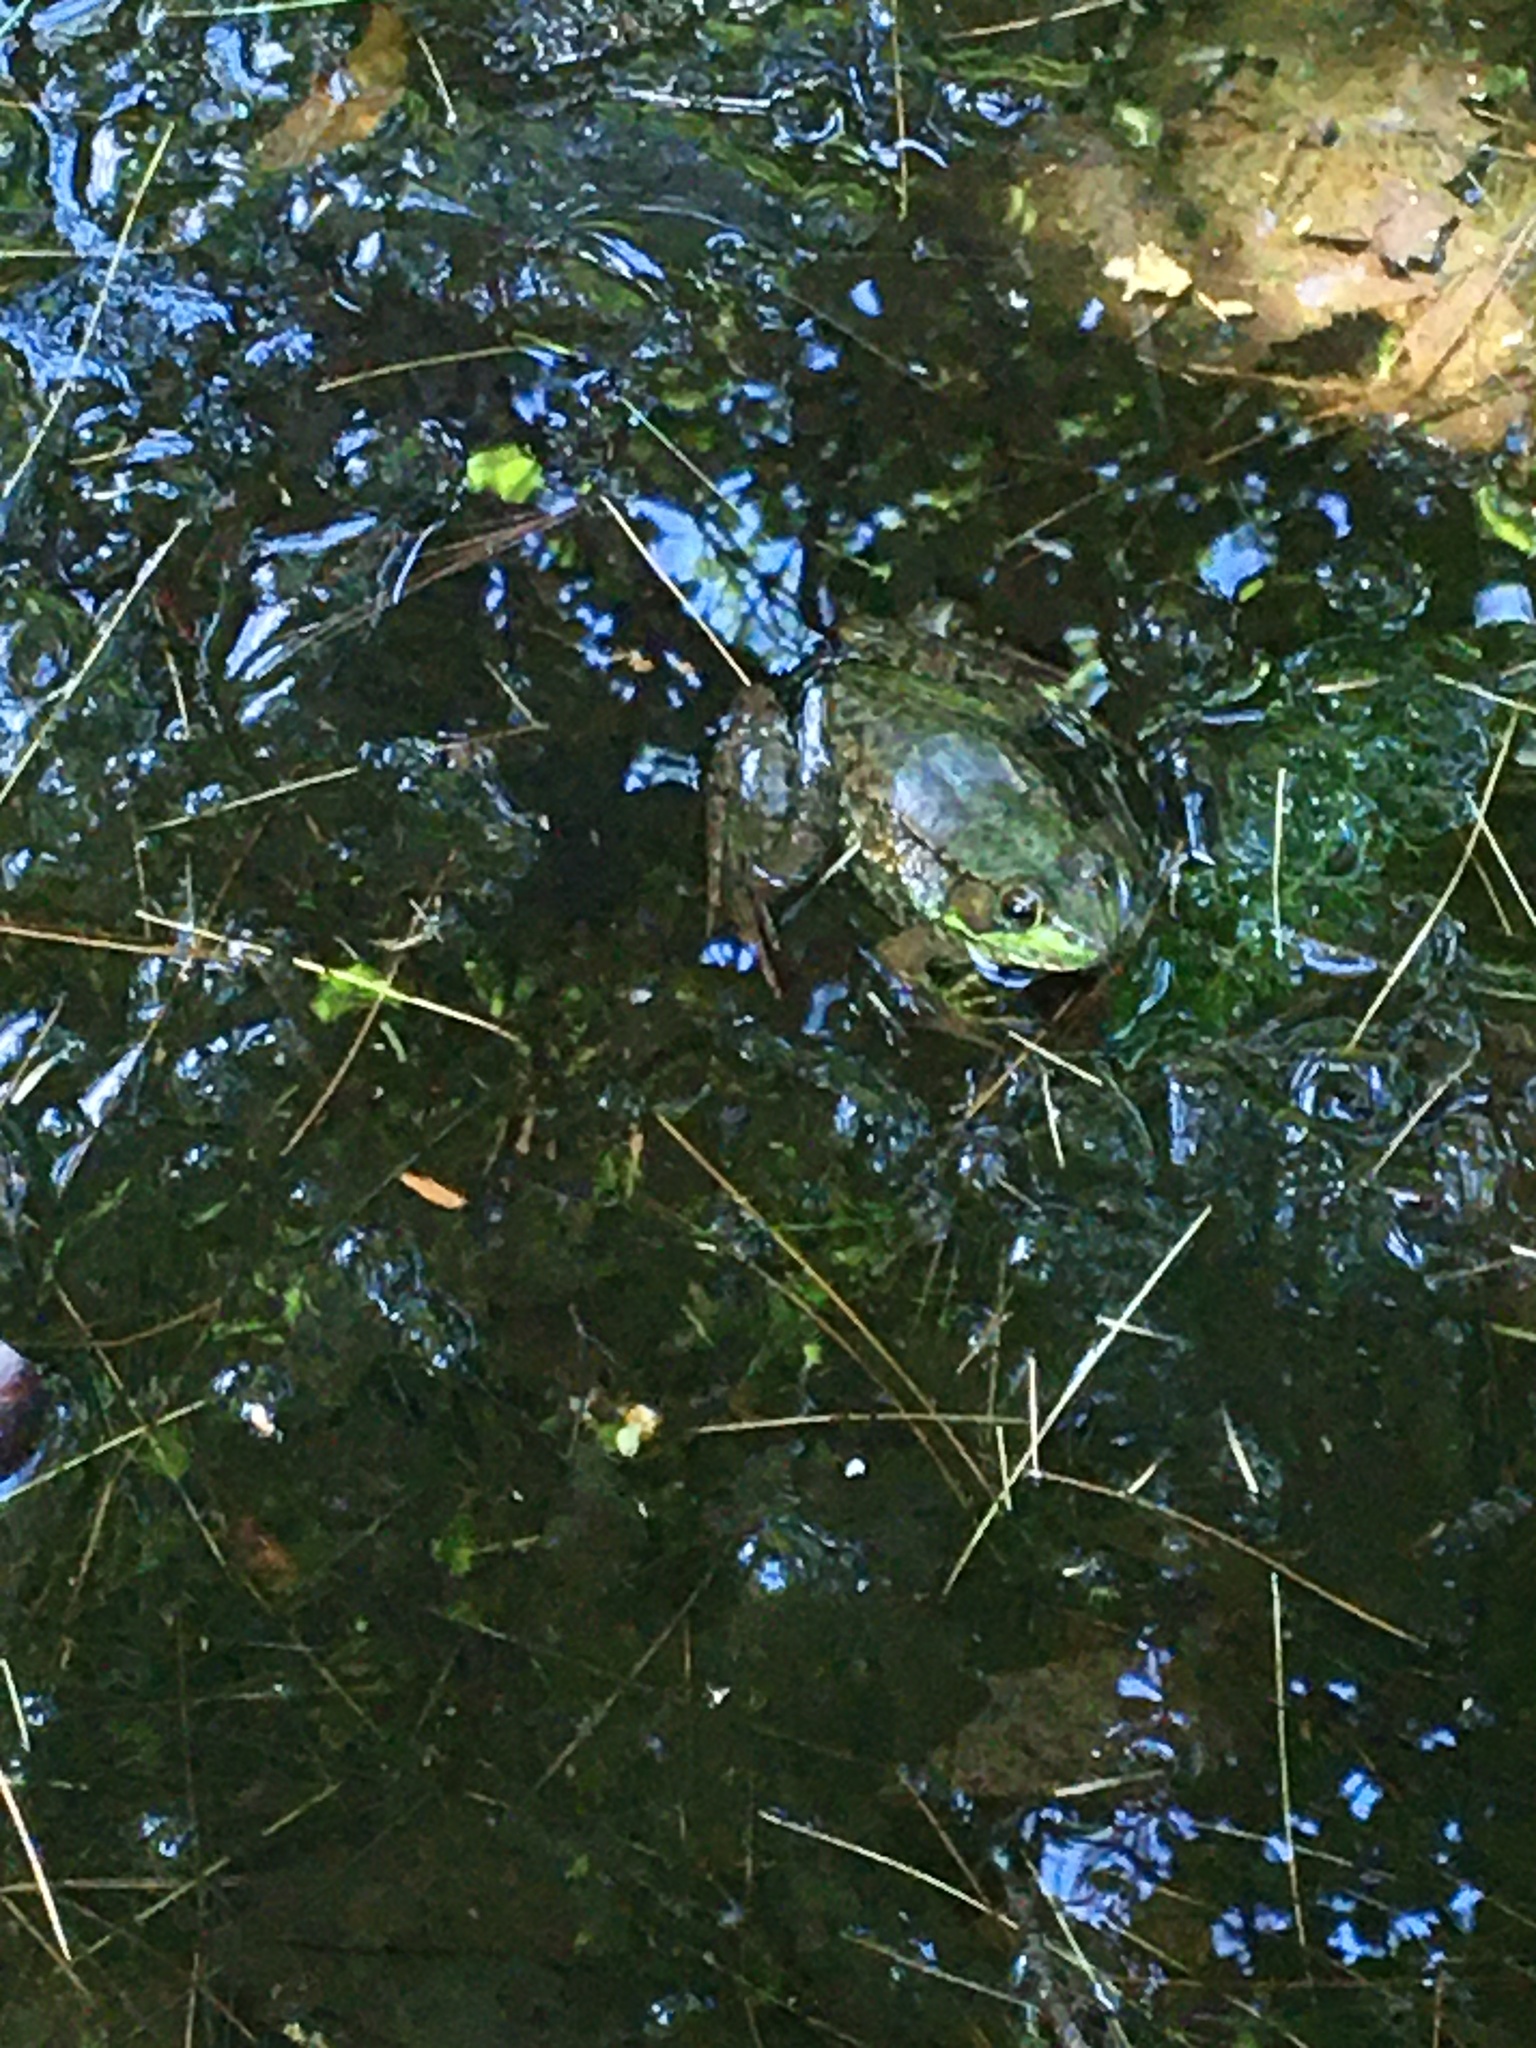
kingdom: Animalia
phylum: Chordata
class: Amphibia
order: Anura
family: Ranidae
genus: Lithobates
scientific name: Lithobates clamitans
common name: Green frog
